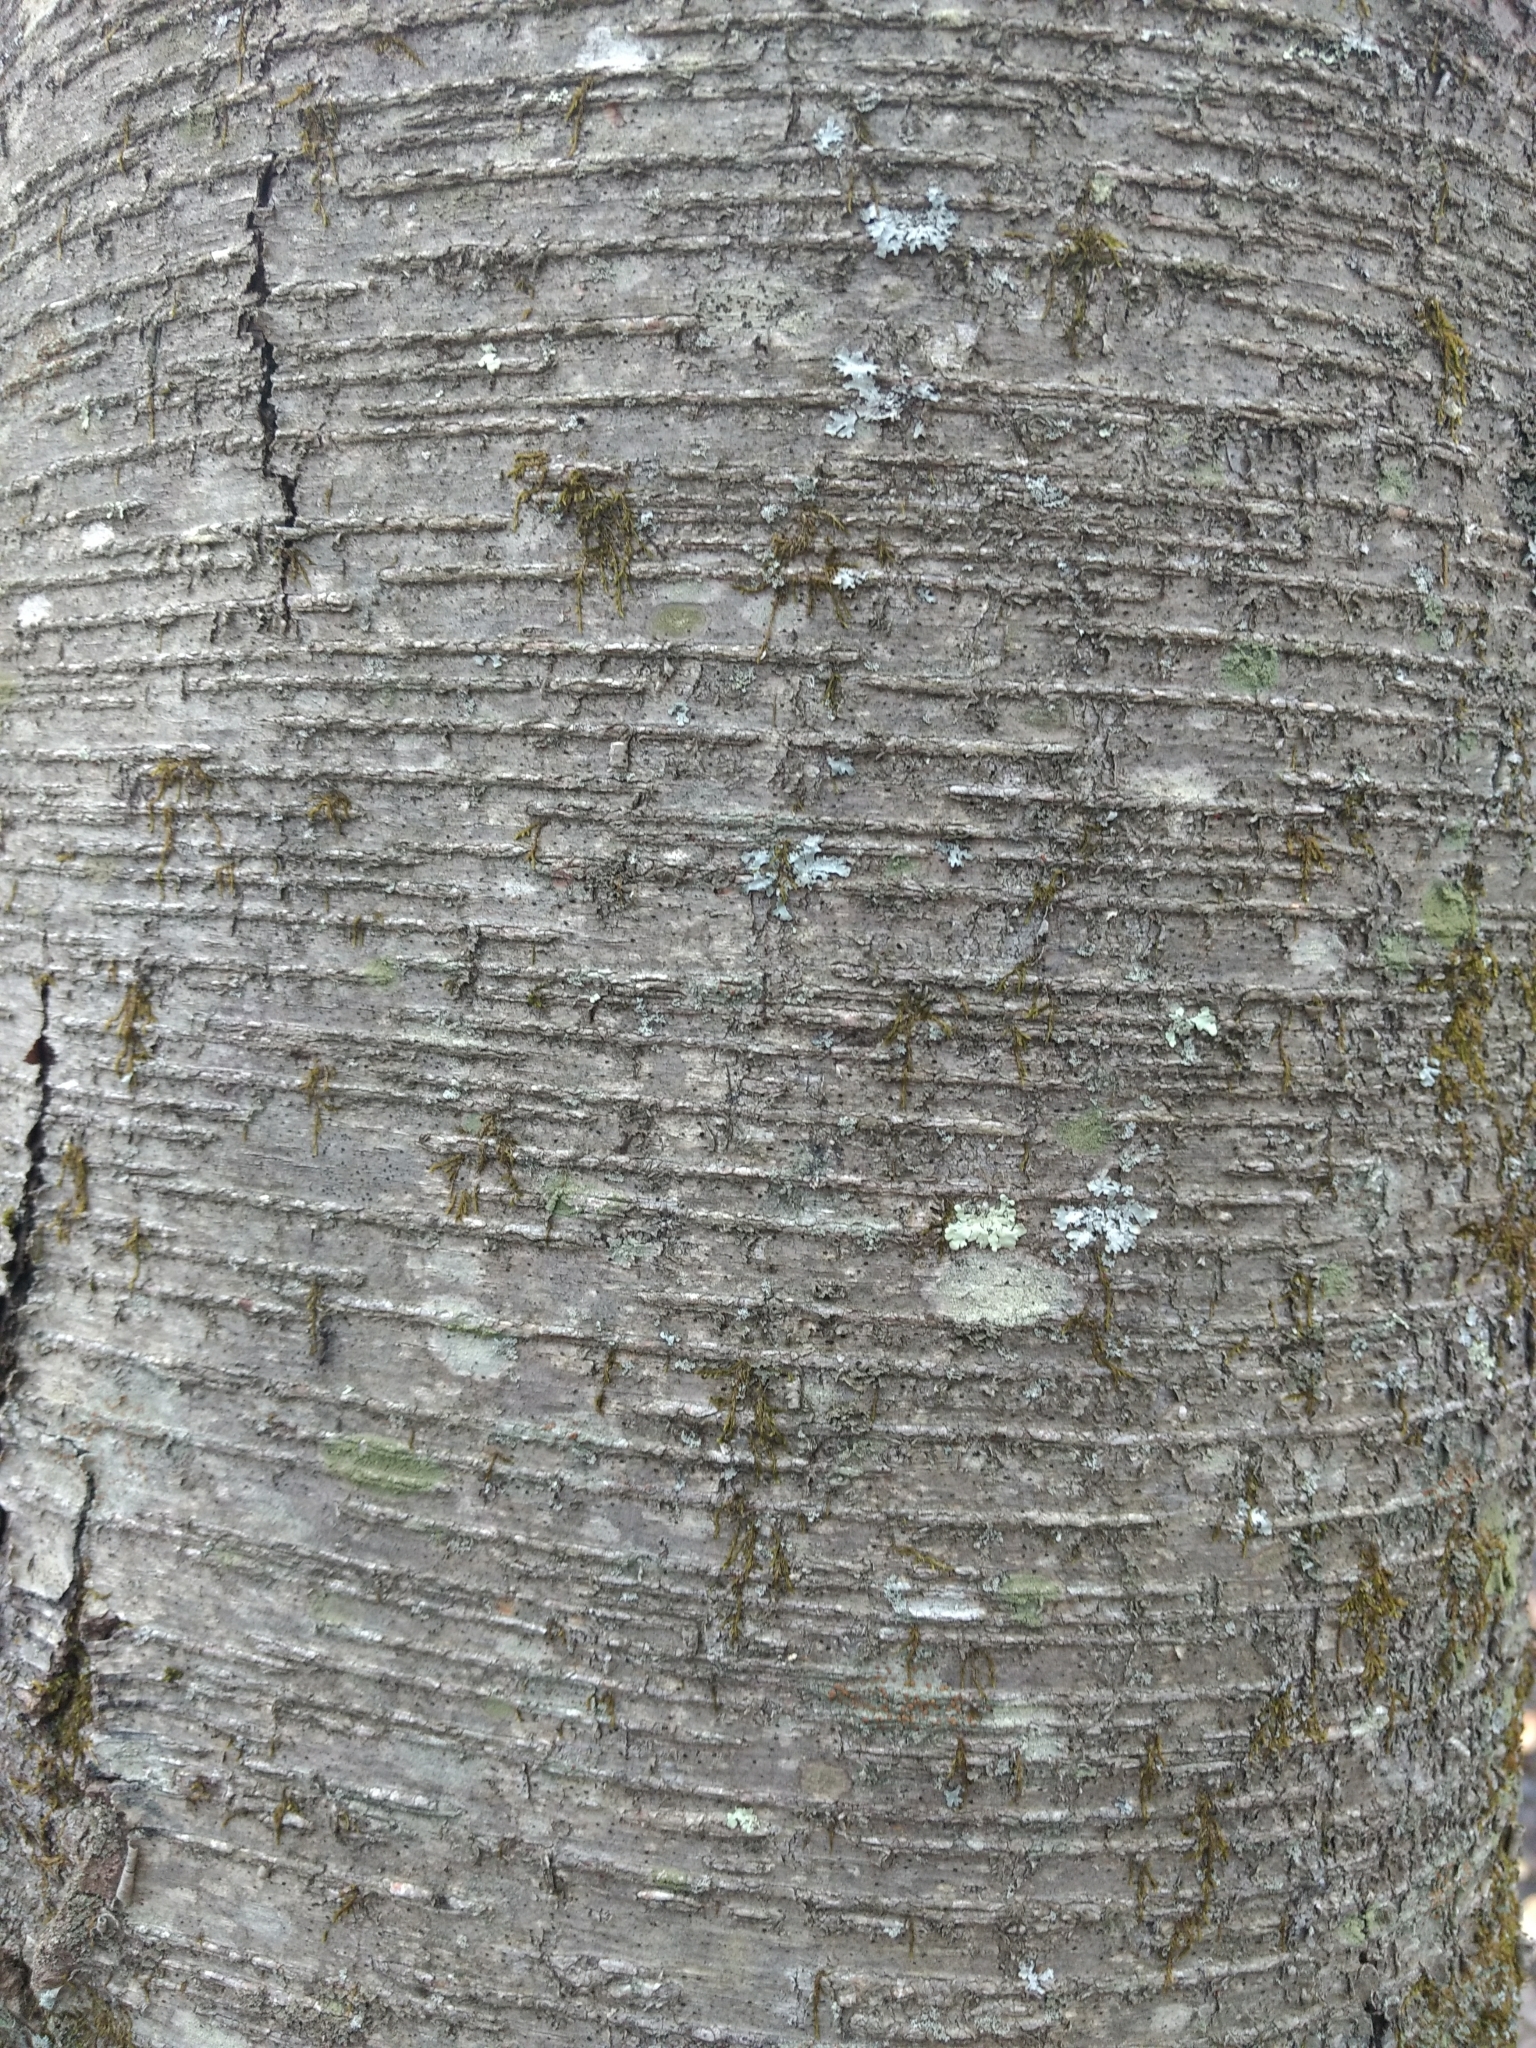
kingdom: Plantae
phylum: Tracheophyta
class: Magnoliopsida
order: Fagales
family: Betulaceae
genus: Betula
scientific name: Betula lenta
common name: Black birch
